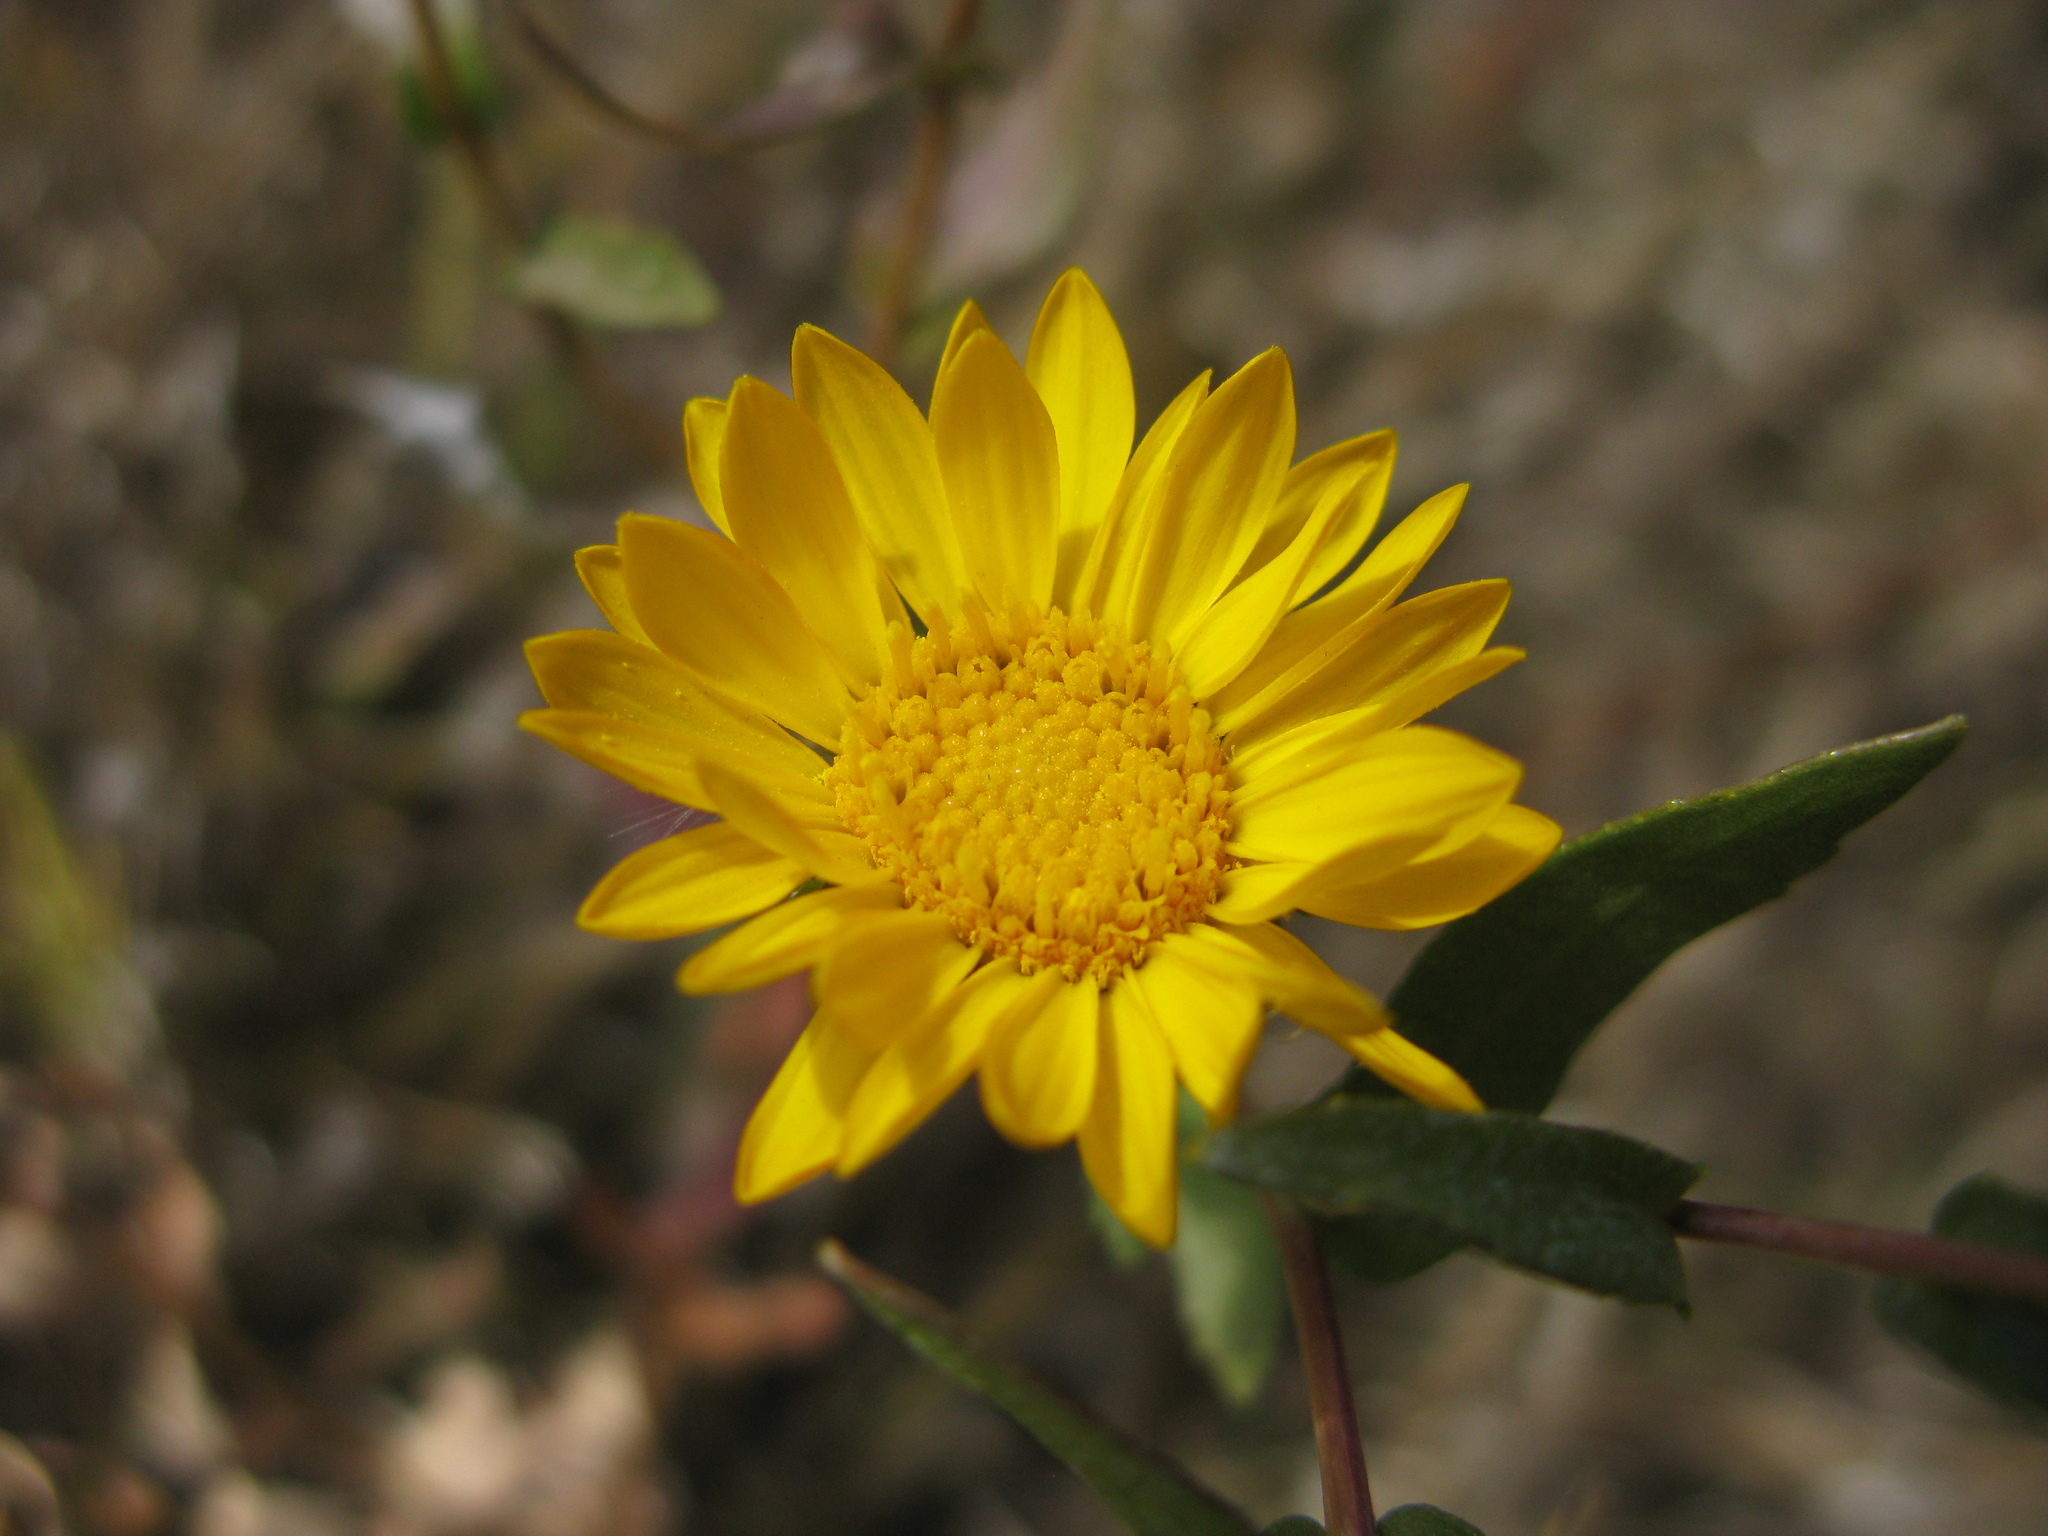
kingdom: Plantae
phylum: Tracheophyta
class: Magnoliopsida
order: Asterales
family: Asteraceae
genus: Grindelia
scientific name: Grindelia squarrosa
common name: Curly-cup gumweed
